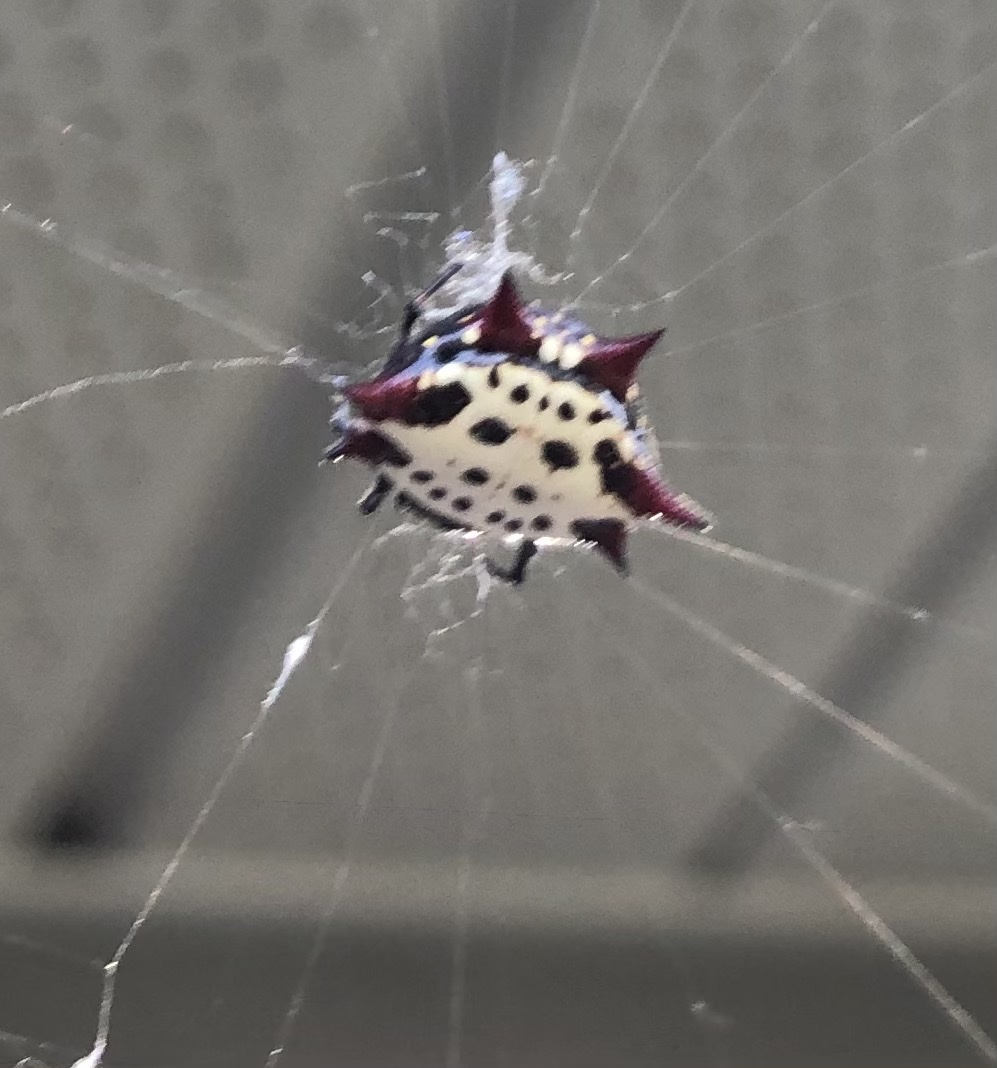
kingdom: Animalia
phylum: Arthropoda
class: Arachnida
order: Araneae
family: Araneidae
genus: Gasteracantha
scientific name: Gasteracantha cancriformis
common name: Orb weavers
